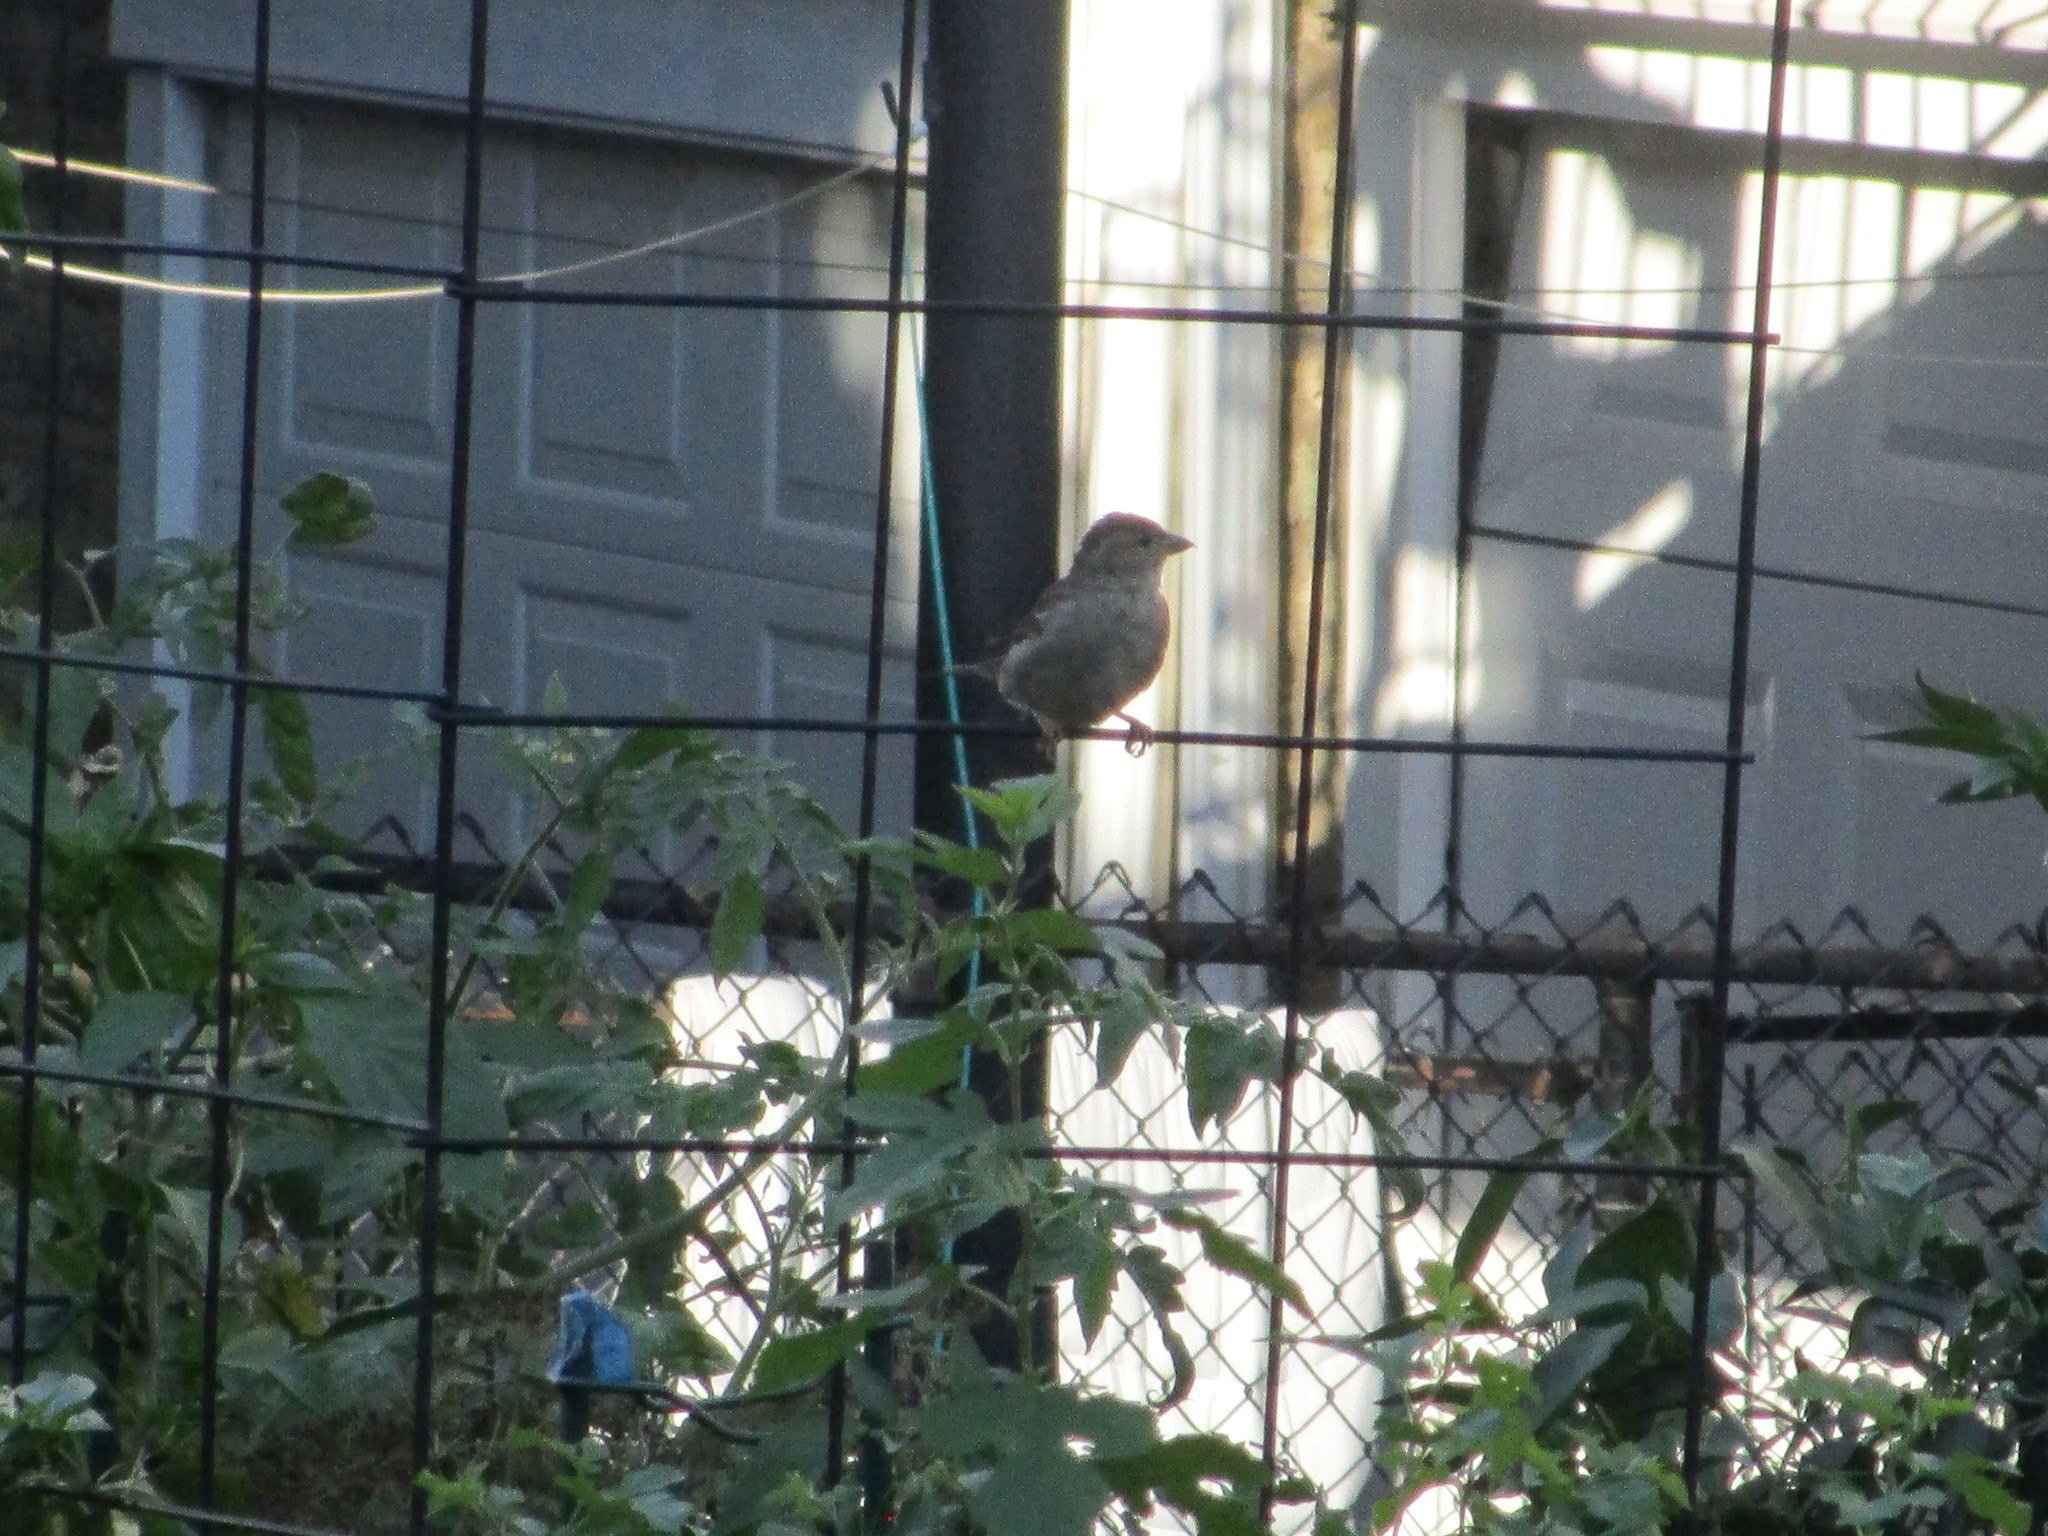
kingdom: Animalia
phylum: Chordata
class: Aves
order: Passeriformes
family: Passeridae
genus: Passer
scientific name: Passer domesticus
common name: House sparrow
